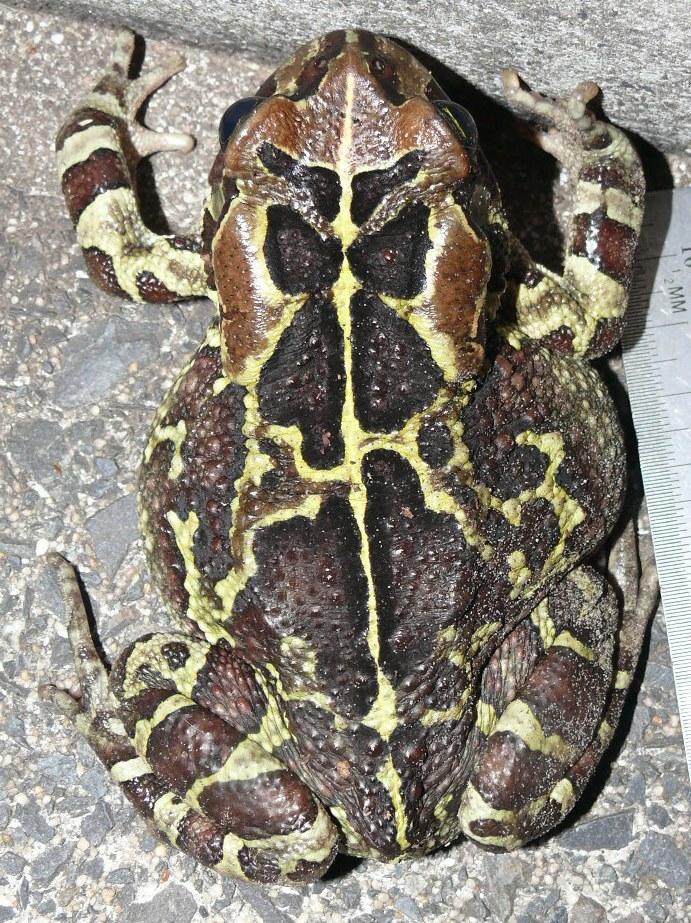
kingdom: Animalia
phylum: Chordata
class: Amphibia
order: Anura
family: Bufonidae
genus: Sclerophrys
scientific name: Sclerophrys pantherina
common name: Panther toad
